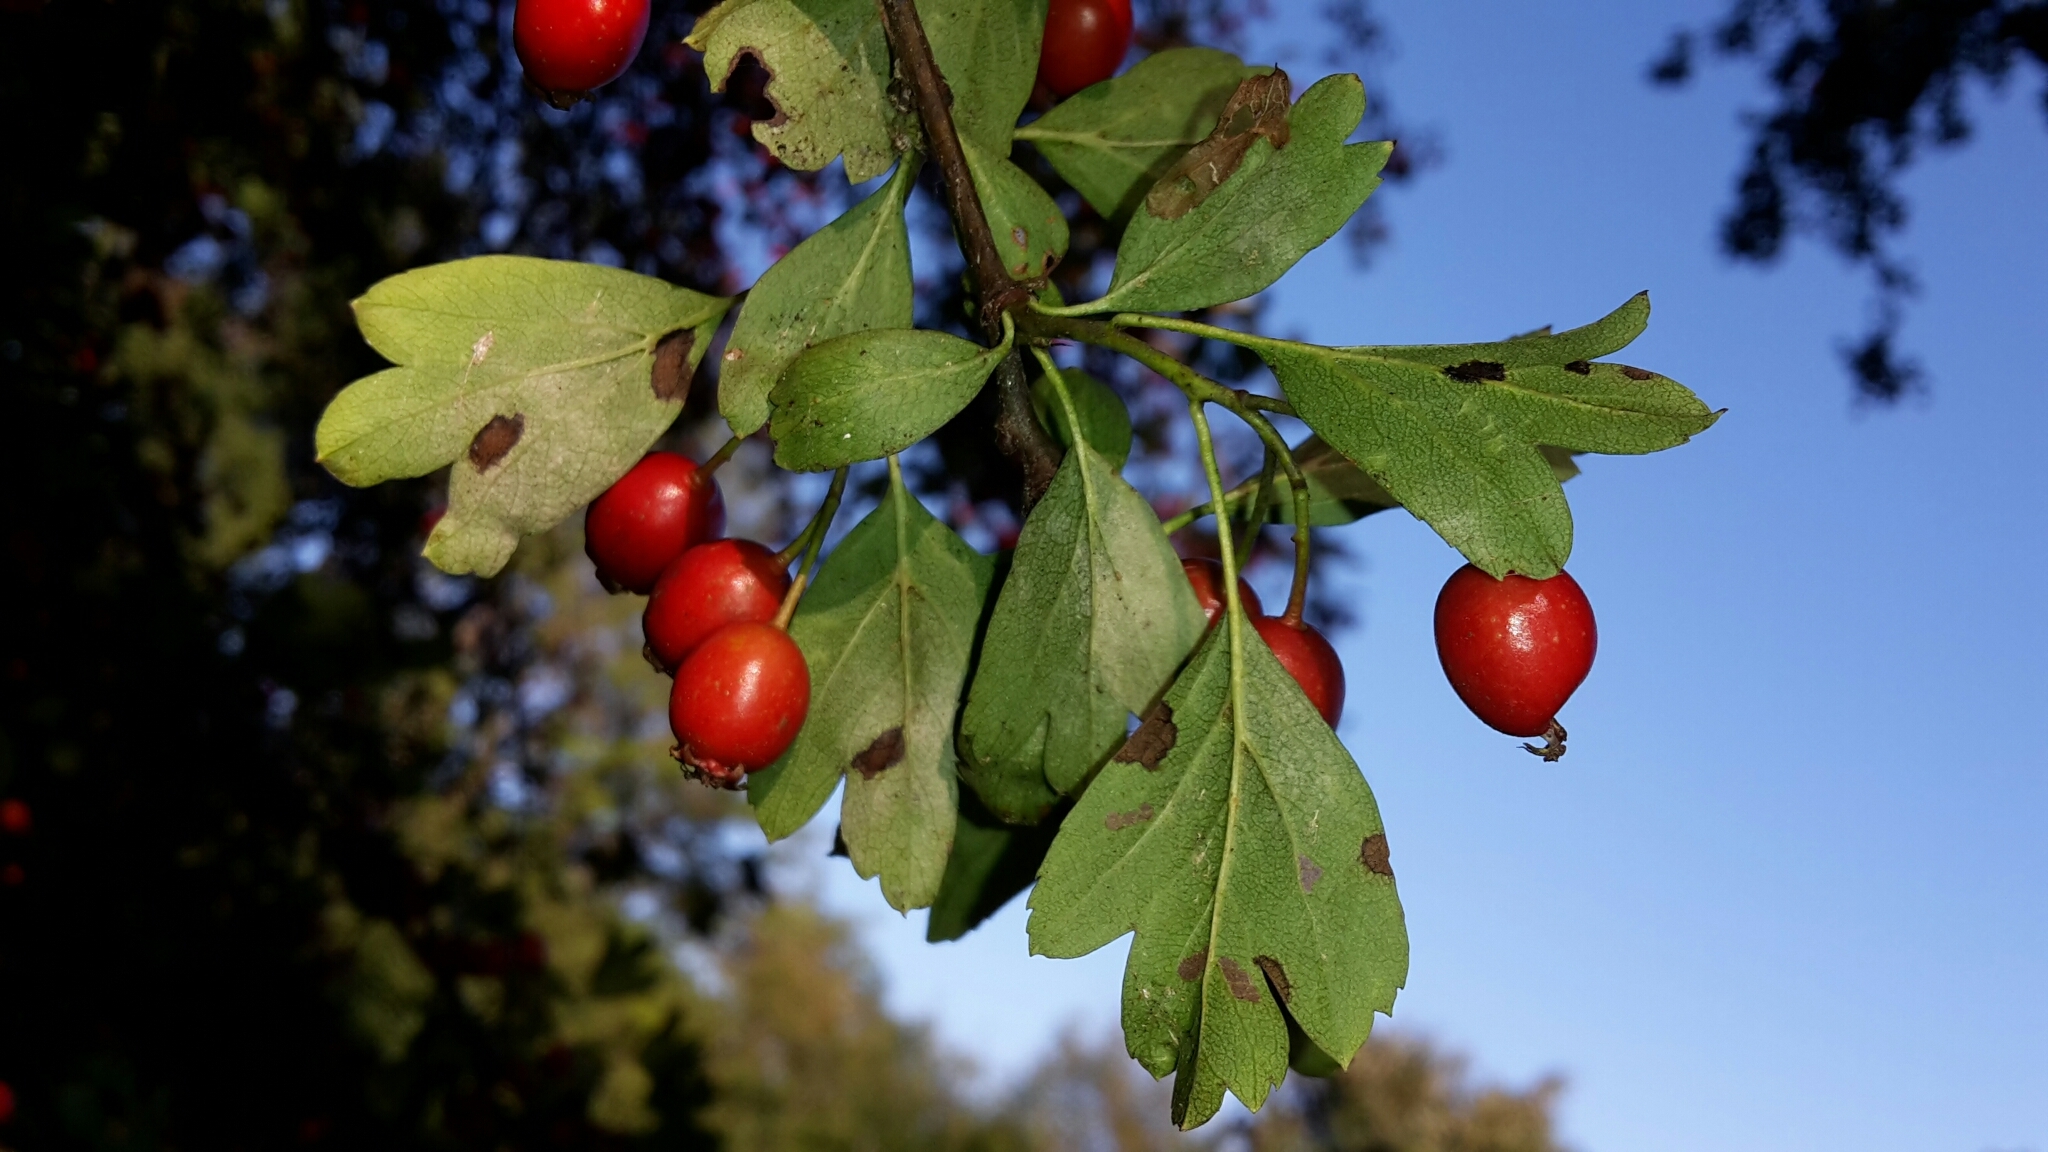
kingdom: Plantae
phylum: Tracheophyta
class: Magnoliopsida
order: Rosales
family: Rosaceae
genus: Crataegus
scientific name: Crataegus monogyna
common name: Hawthorn
